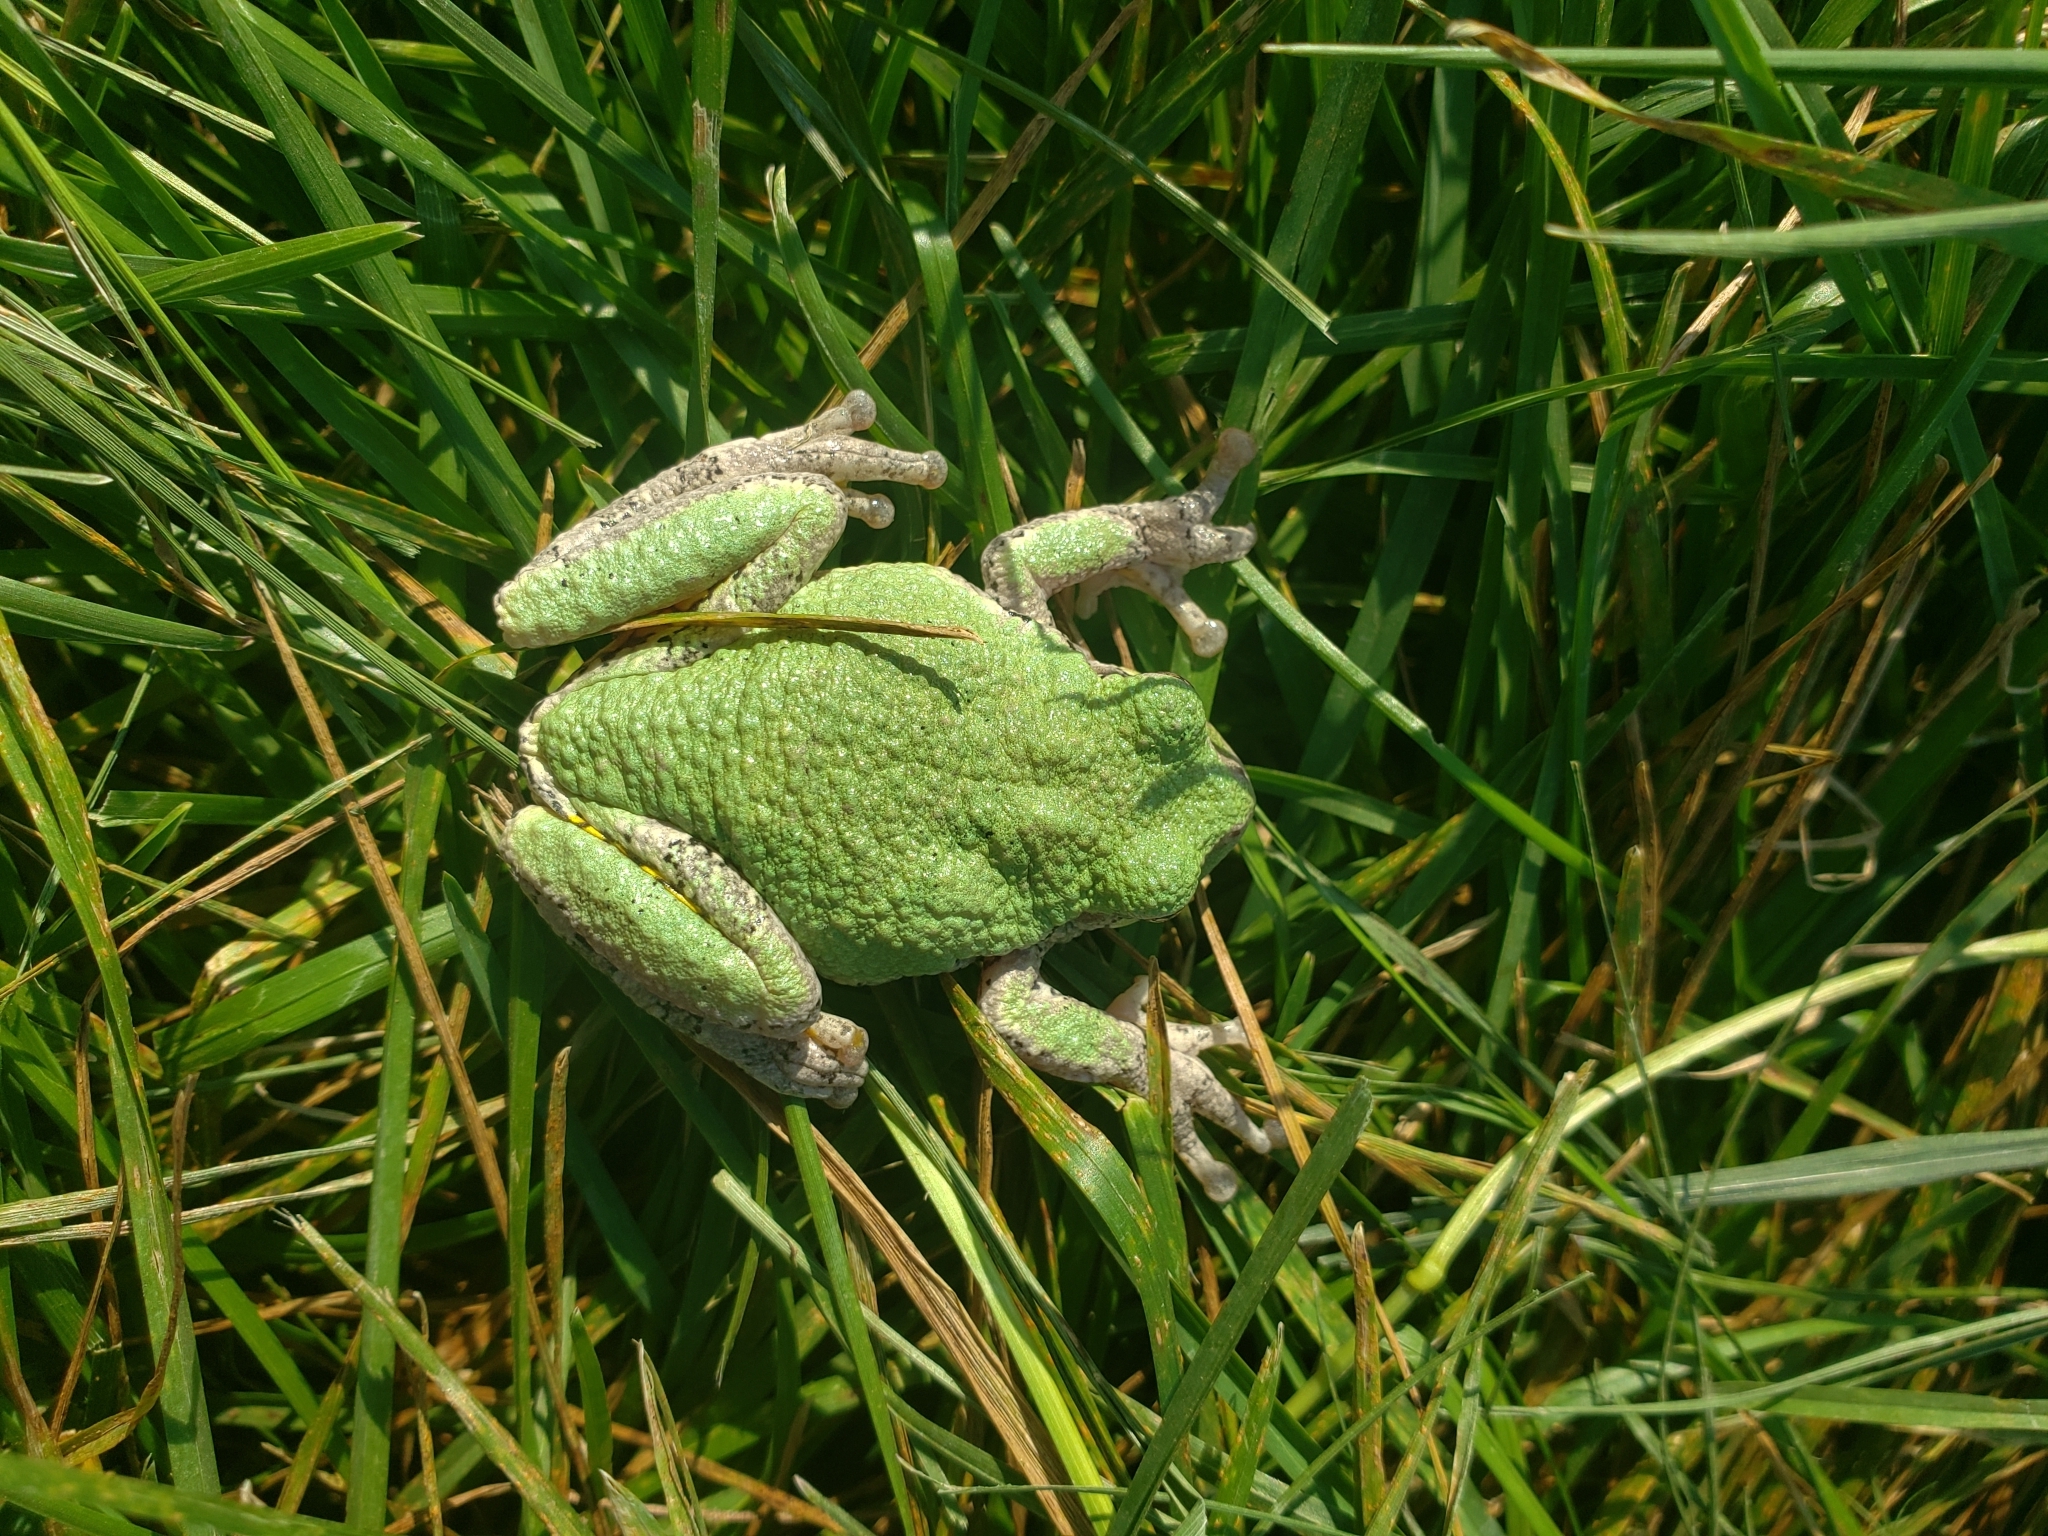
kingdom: Animalia
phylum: Chordata
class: Amphibia
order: Anura
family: Hylidae
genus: Hyla
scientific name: Hyla
